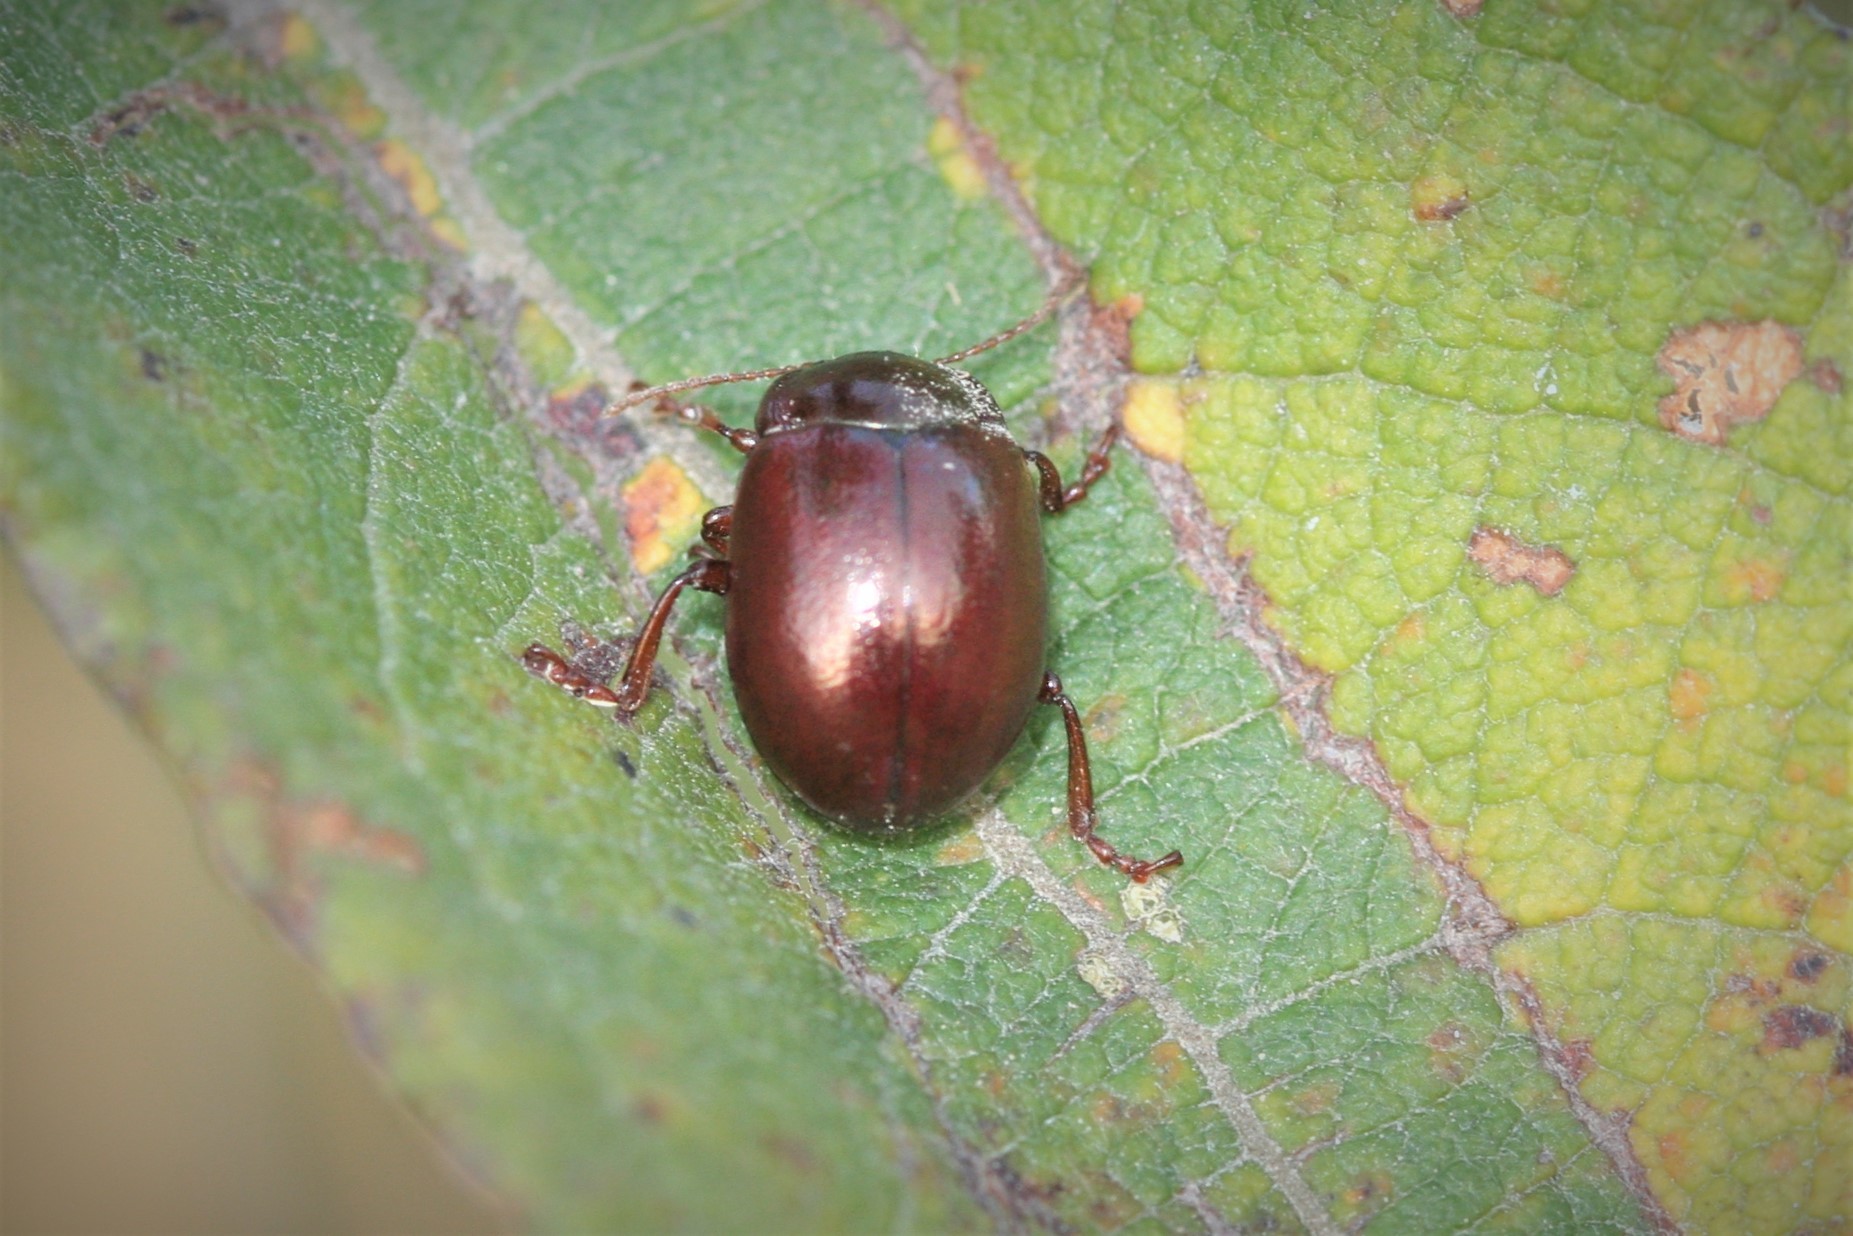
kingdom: Animalia
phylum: Arthropoda
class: Insecta
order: Coleoptera
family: Chrysomelidae
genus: Chrysolina
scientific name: Chrysolina staphylaea
